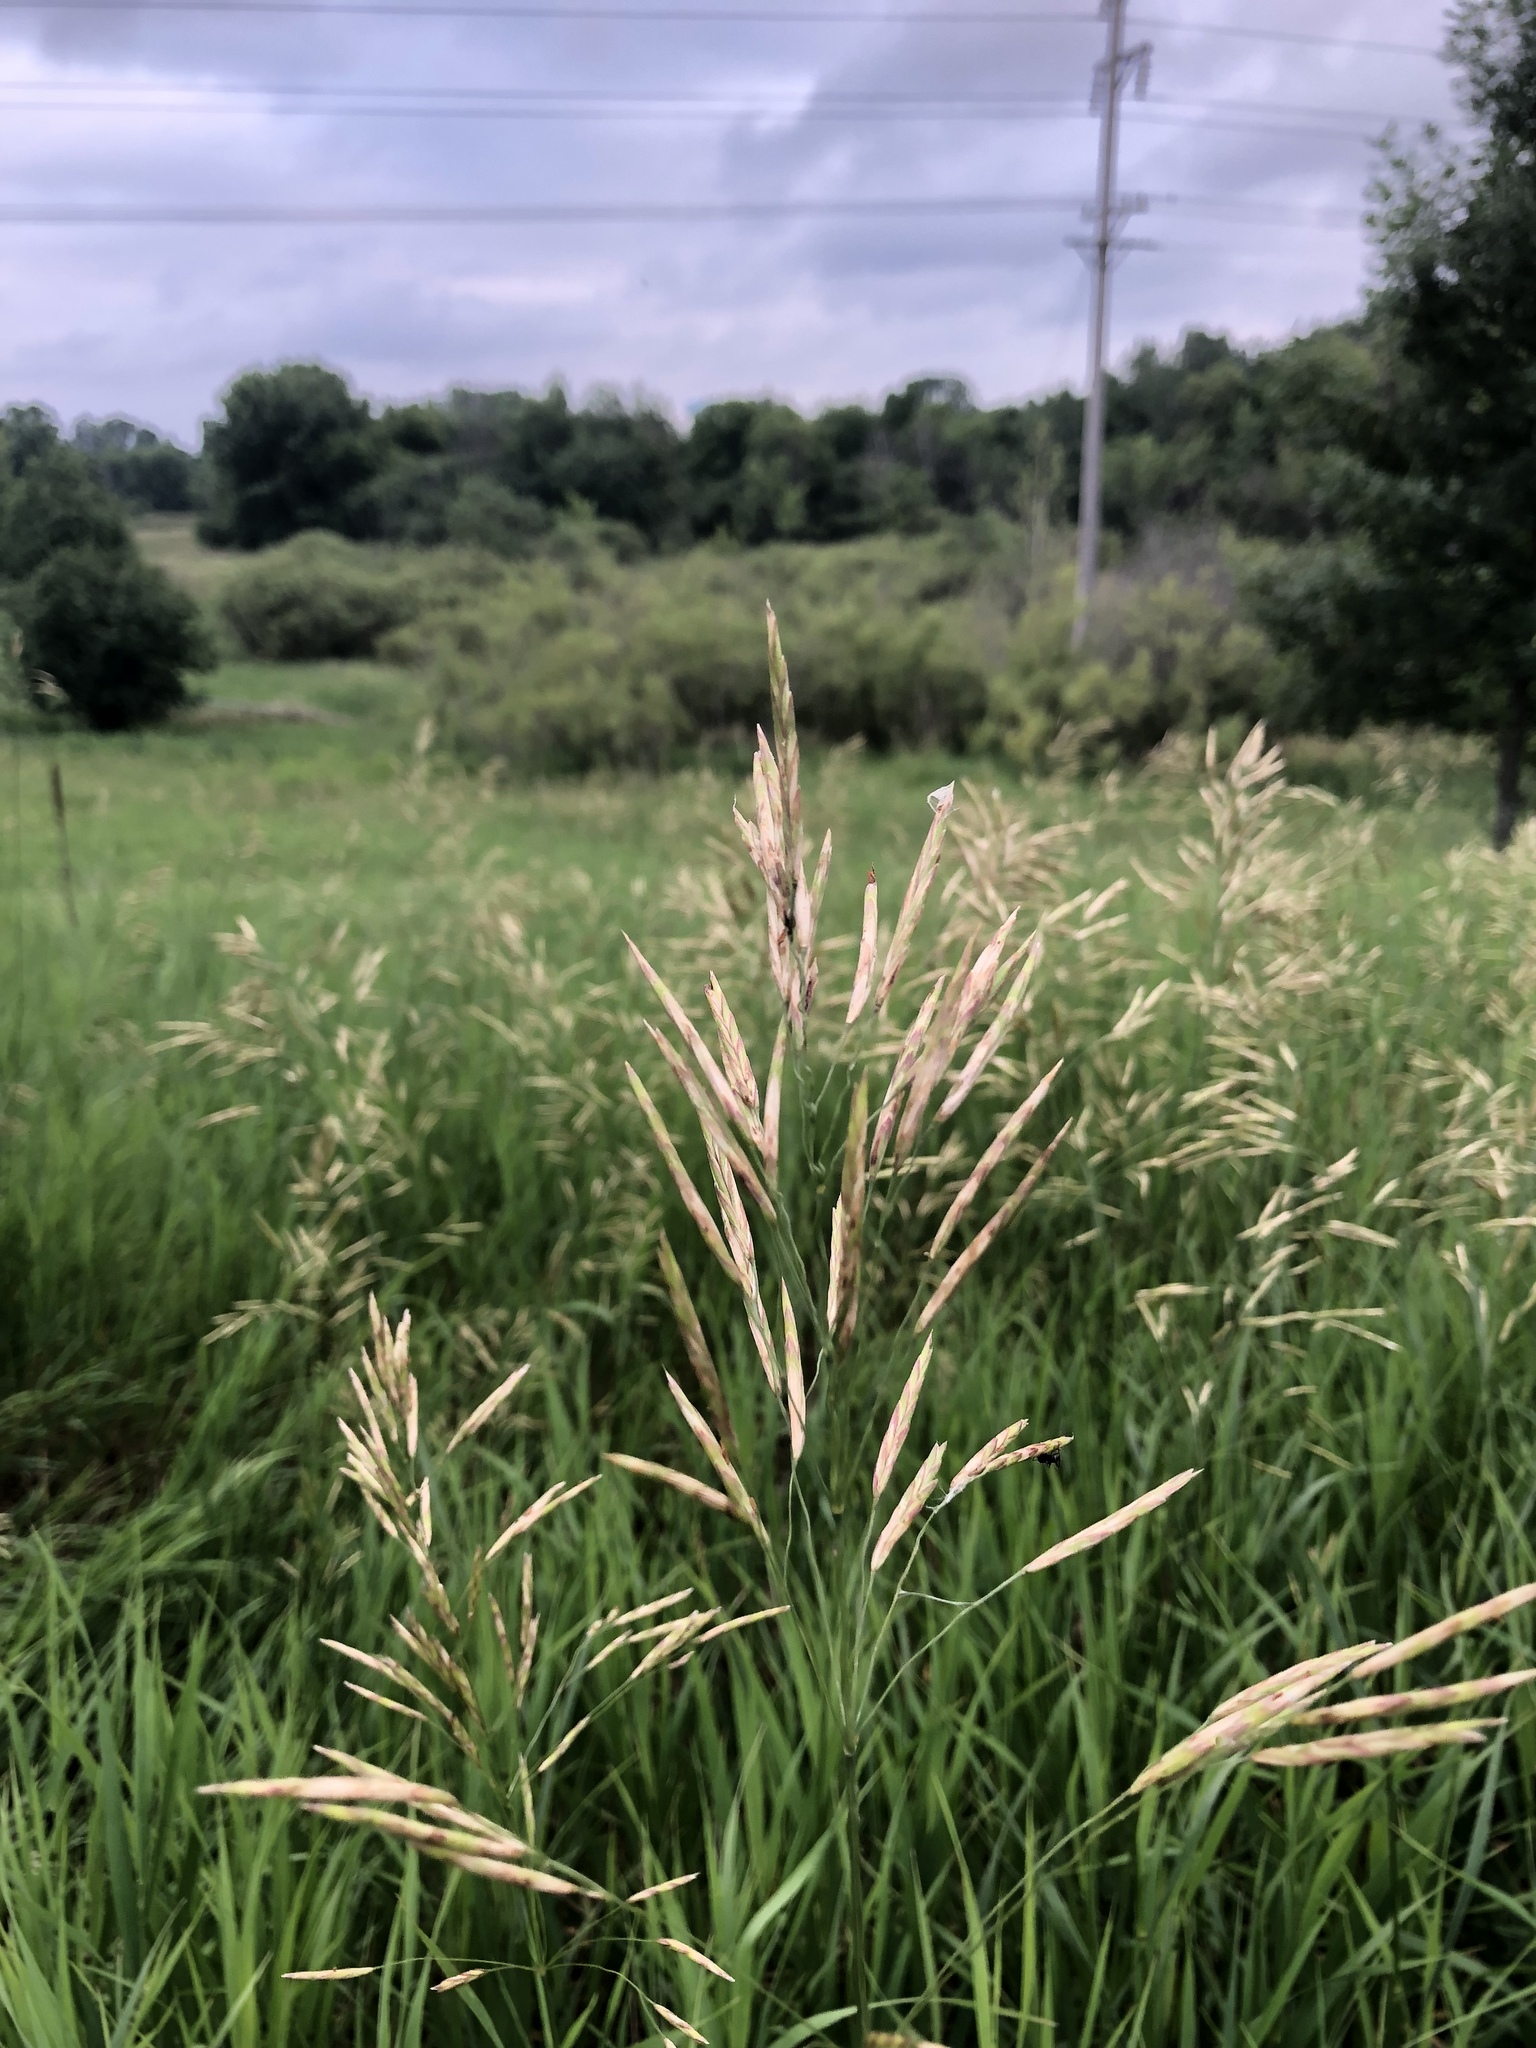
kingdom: Plantae
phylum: Tracheophyta
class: Liliopsida
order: Poales
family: Poaceae
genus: Bromus
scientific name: Bromus inermis
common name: Smooth brome
